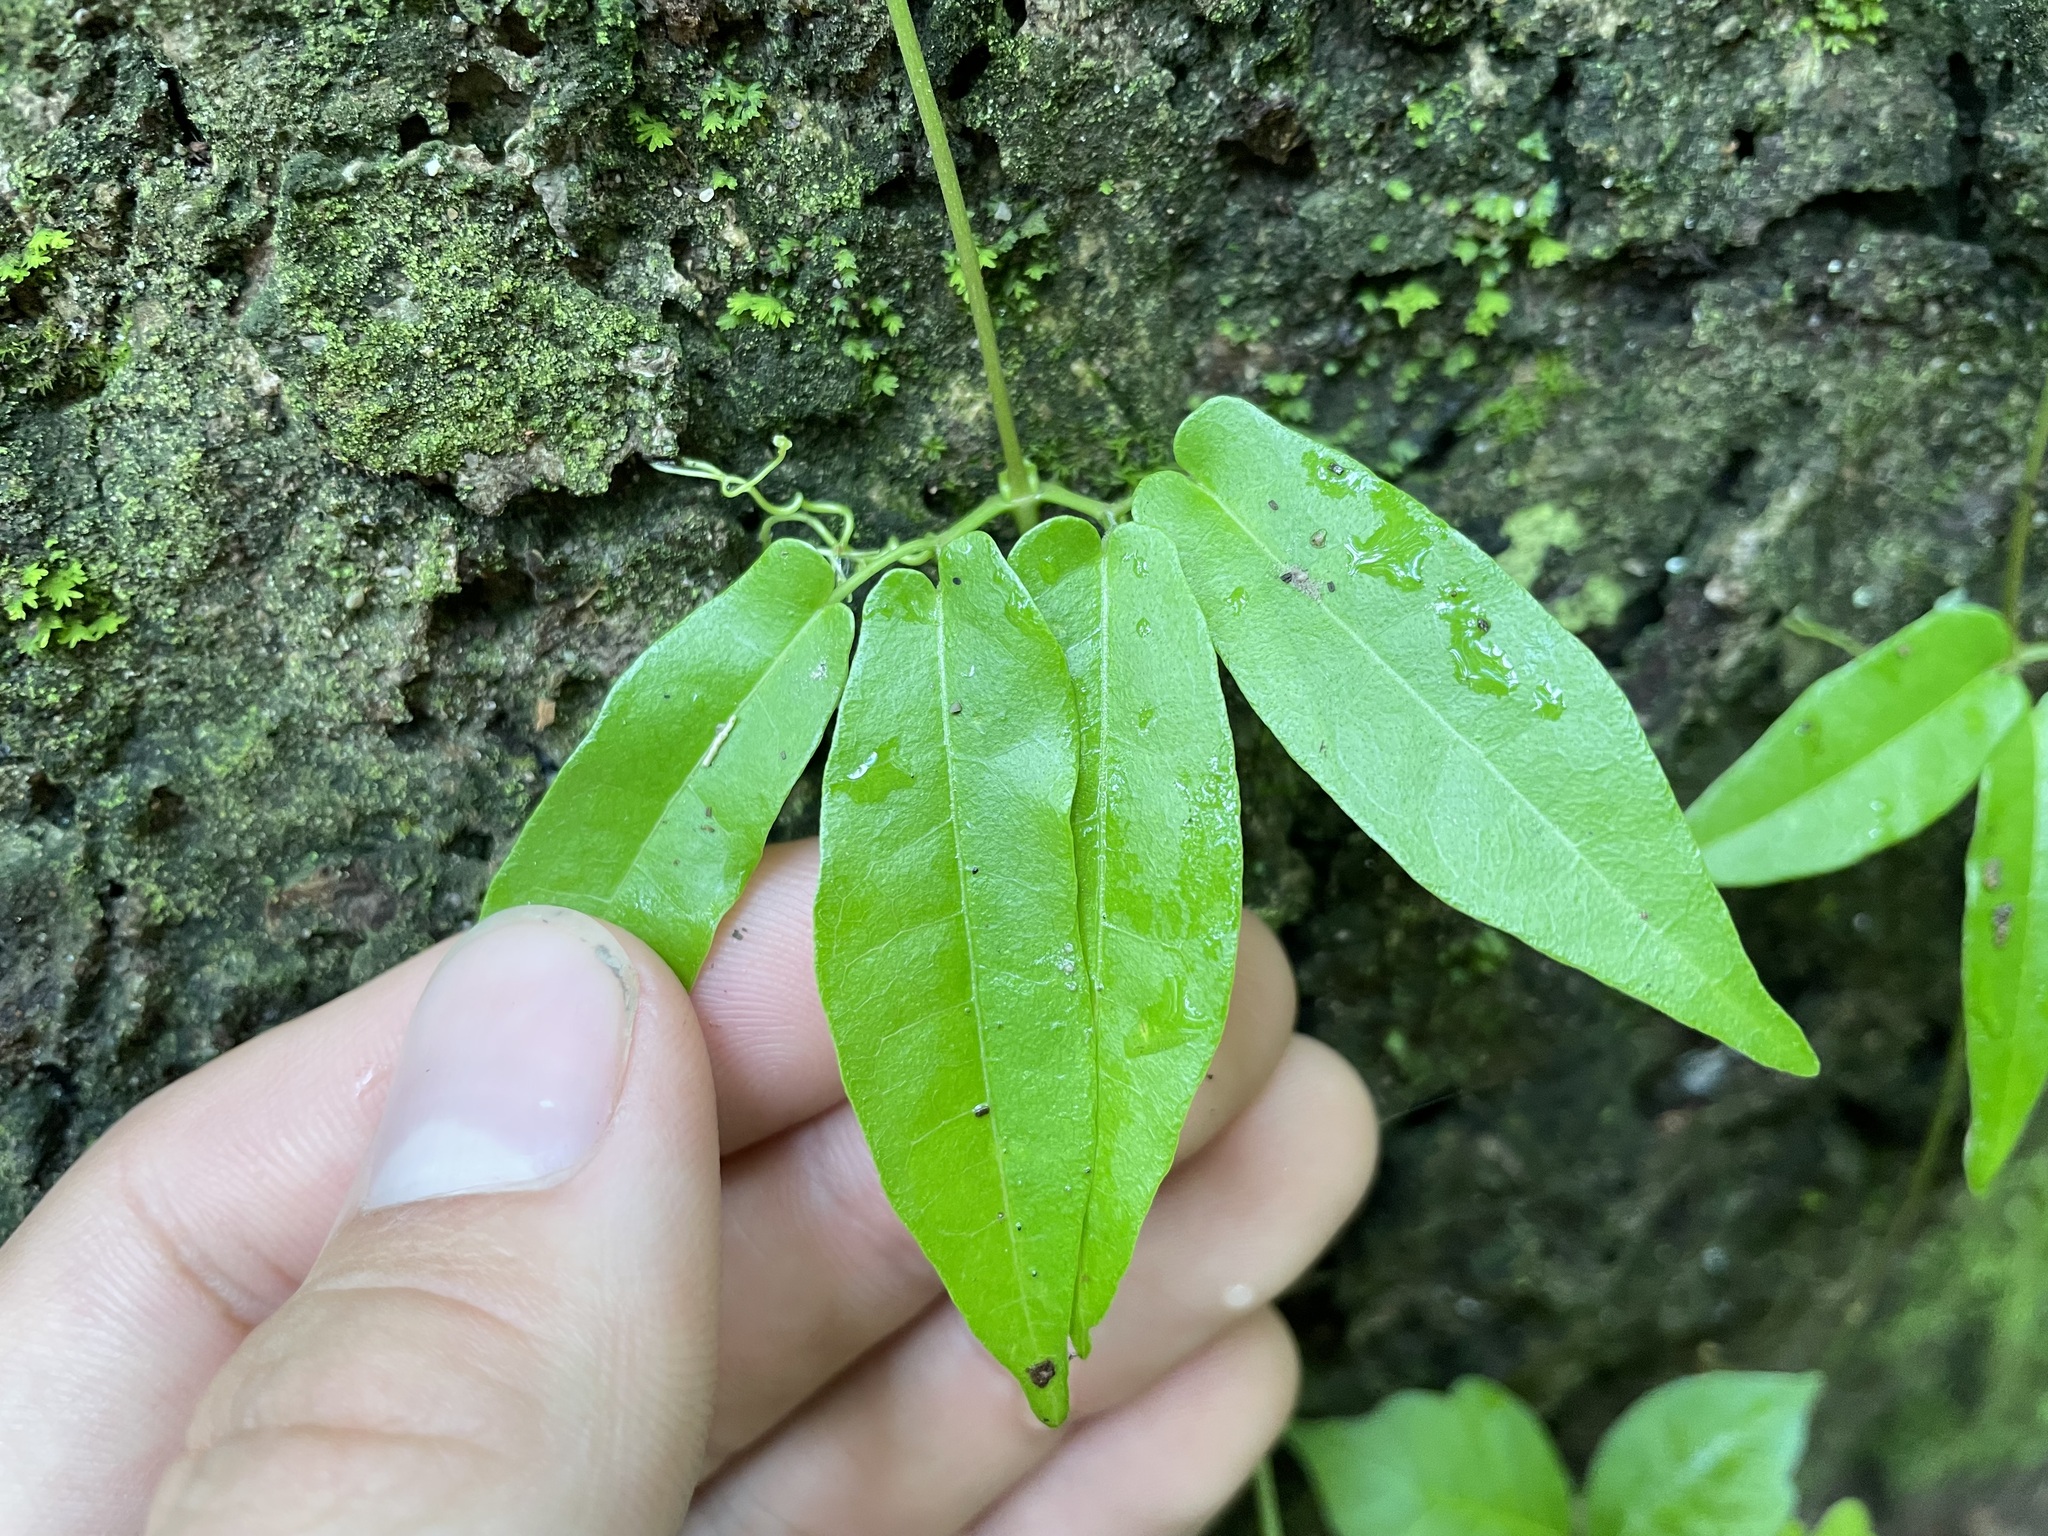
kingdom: Plantae
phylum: Tracheophyta
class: Magnoliopsida
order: Lamiales
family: Bignoniaceae
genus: Bignonia
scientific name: Bignonia capreolata
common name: Crossvine
